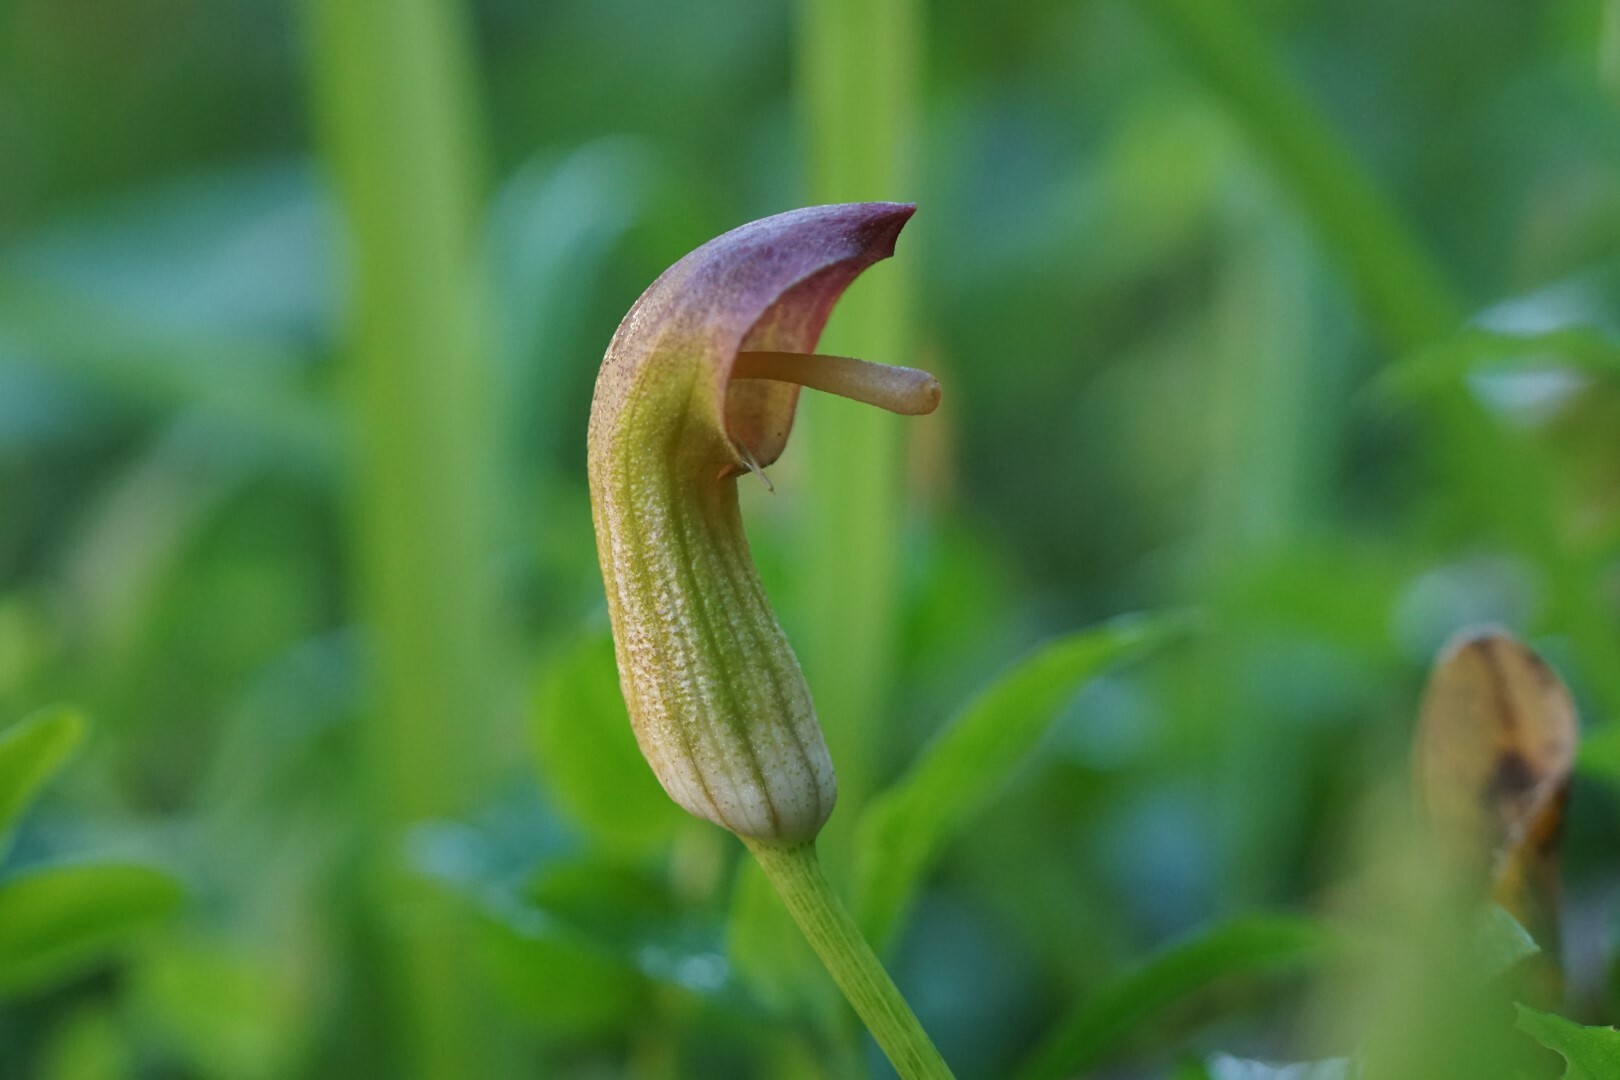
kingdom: Plantae
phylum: Tracheophyta
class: Liliopsida
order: Alismatales
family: Araceae
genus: Arisarum
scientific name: Arisarum vulgare
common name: Common arisarum
